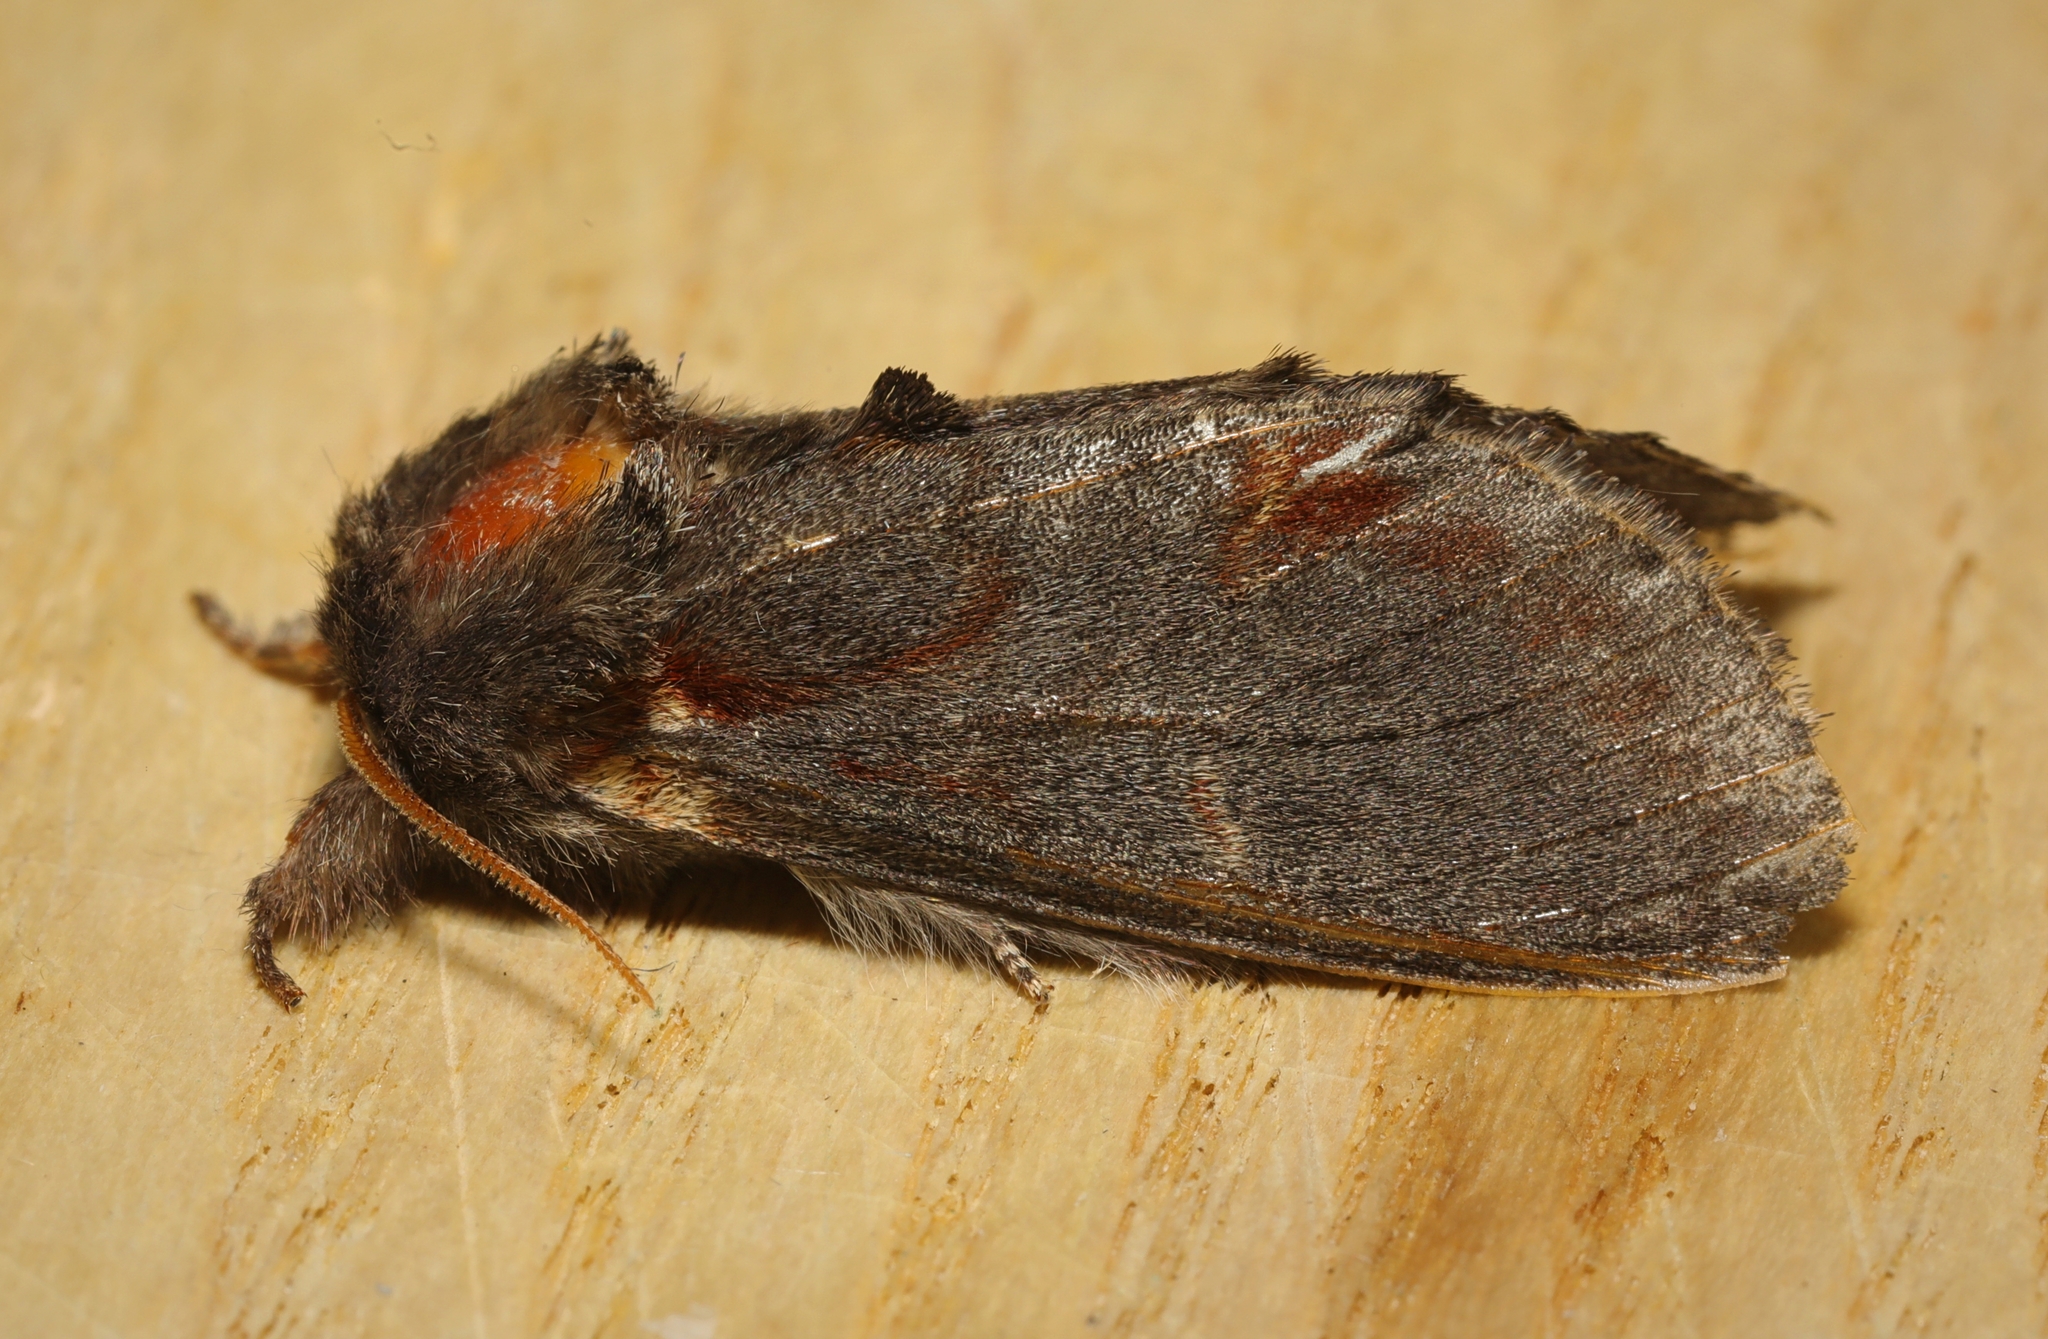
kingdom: Animalia
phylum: Arthropoda
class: Insecta
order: Lepidoptera
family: Notodontidae
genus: Notodonta
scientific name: Notodonta dromedarius
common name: Iron prominent
